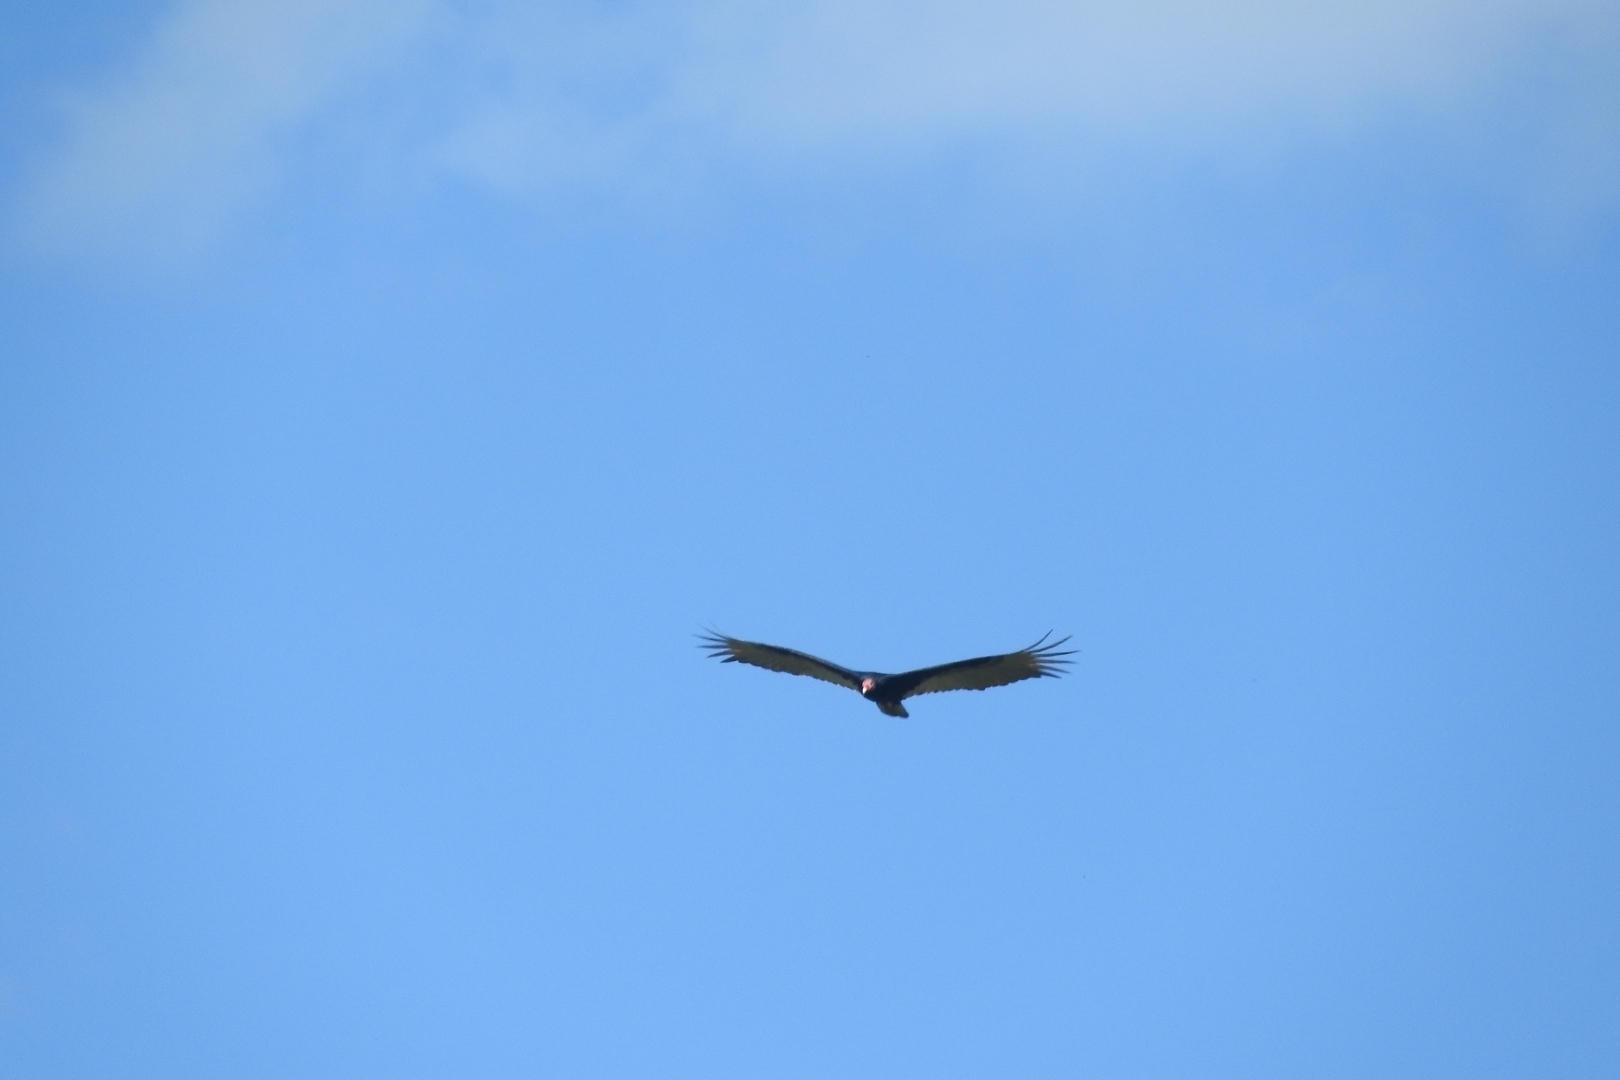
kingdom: Animalia
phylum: Chordata
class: Aves
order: Accipitriformes
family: Cathartidae
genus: Cathartes
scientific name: Cathartes aura
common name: Turkey vulture
